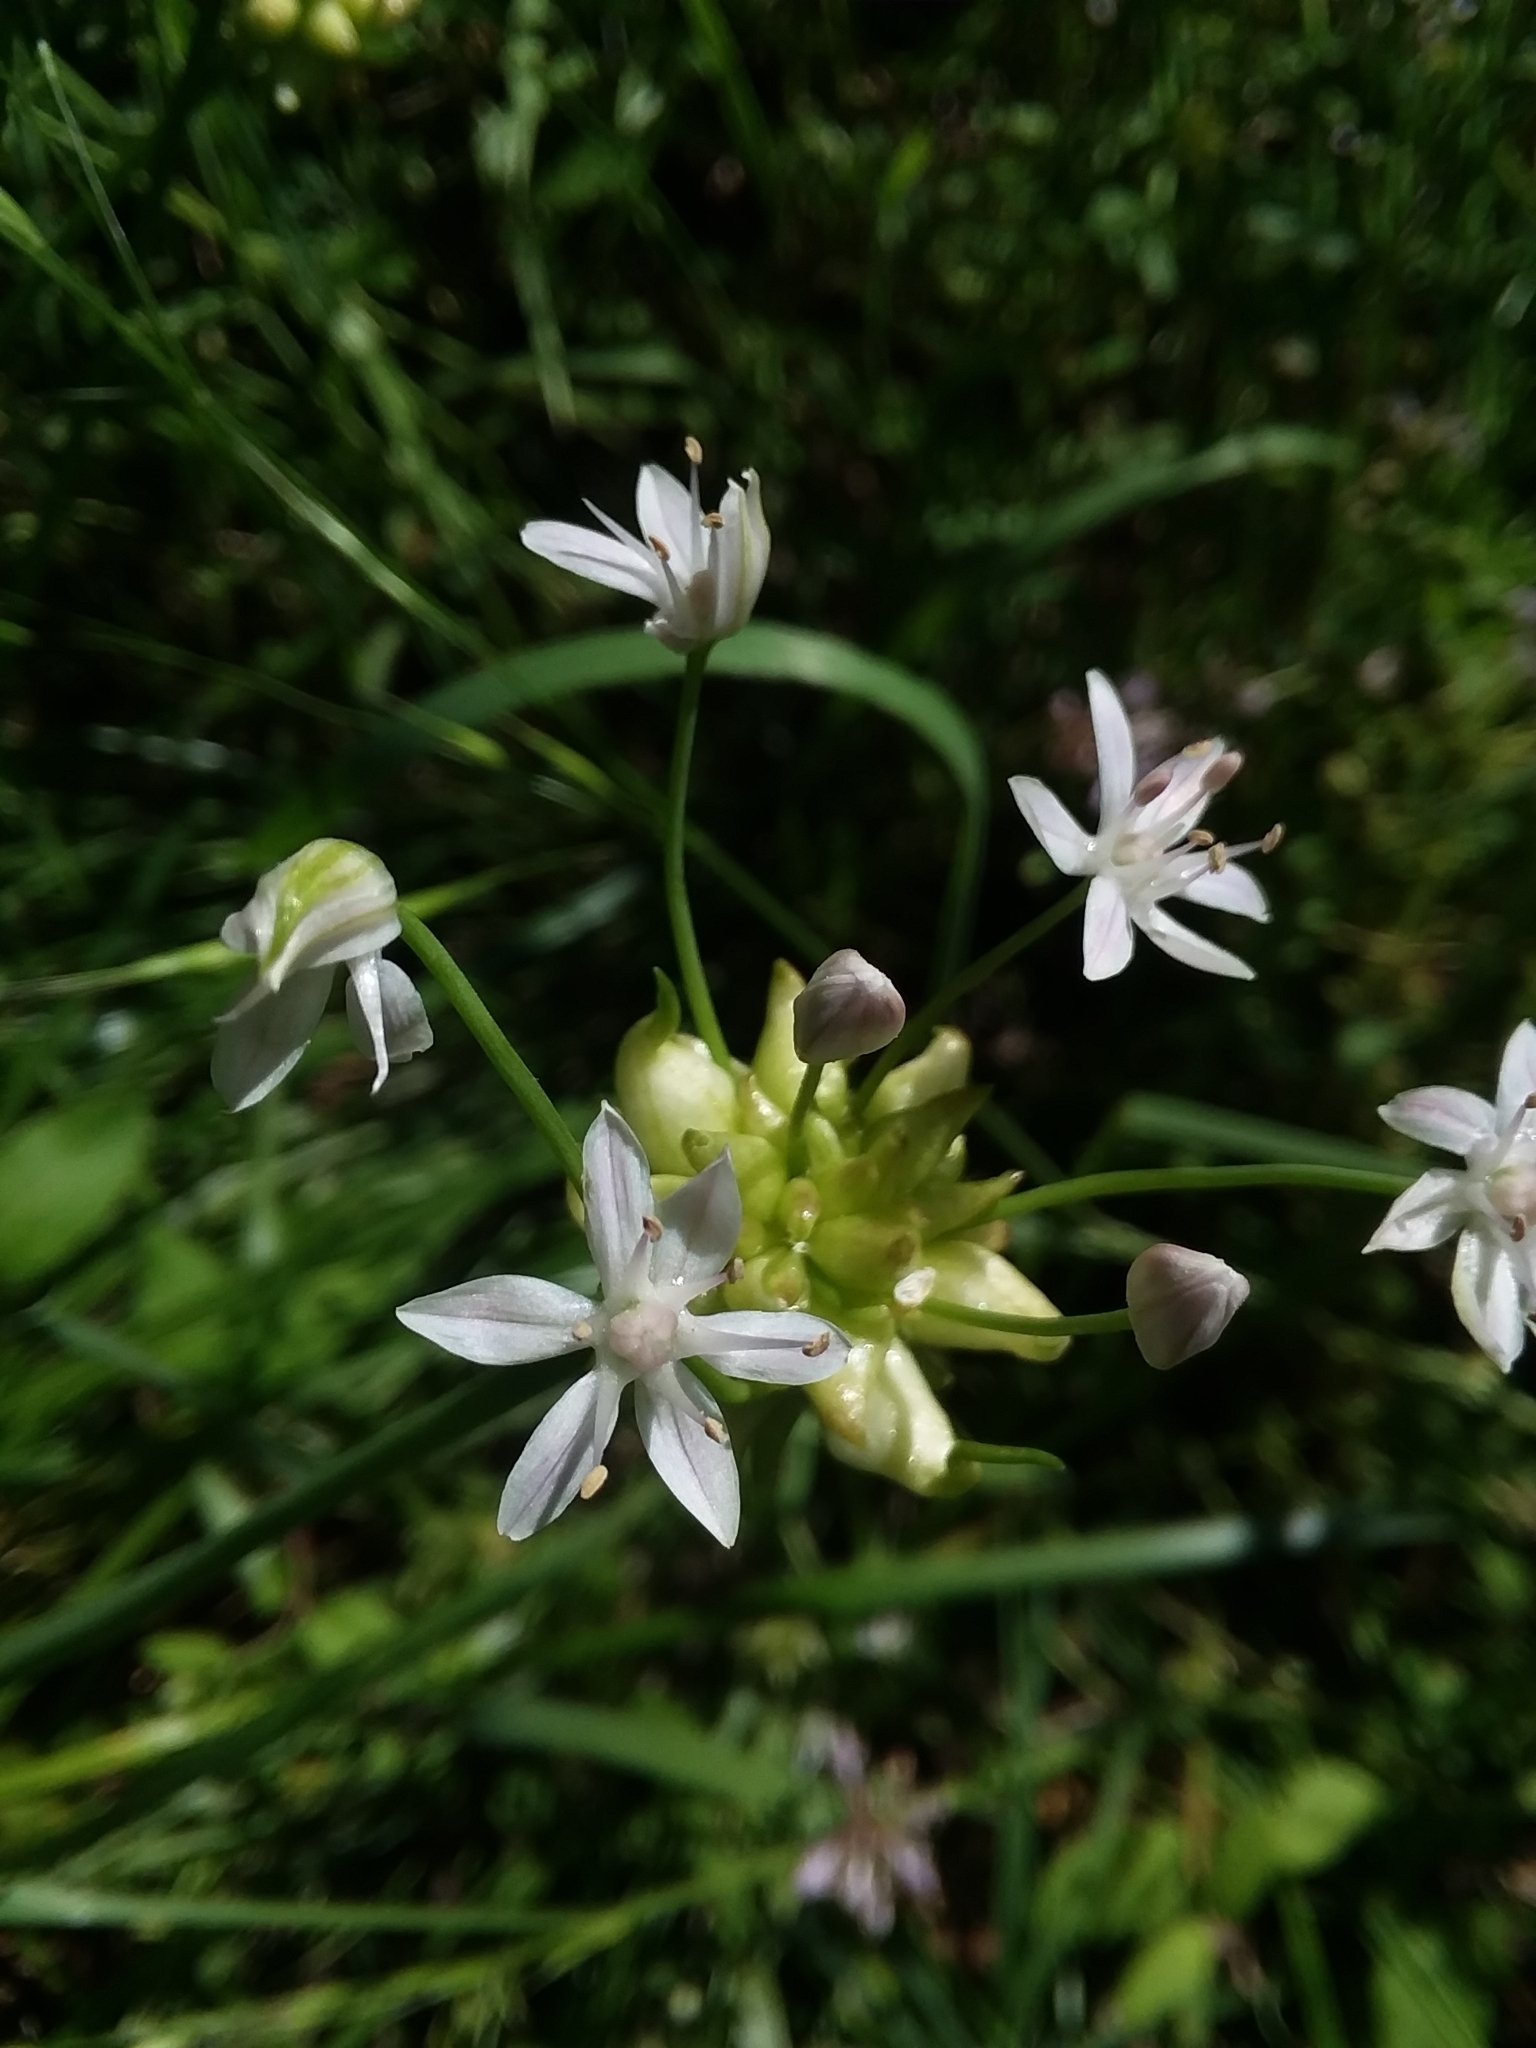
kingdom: Plantae
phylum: Tracheophyta
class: Liliopsida
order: Asparagales
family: Amaryllidaceae
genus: Allium
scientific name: Allium canadense
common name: Meadow garlic
